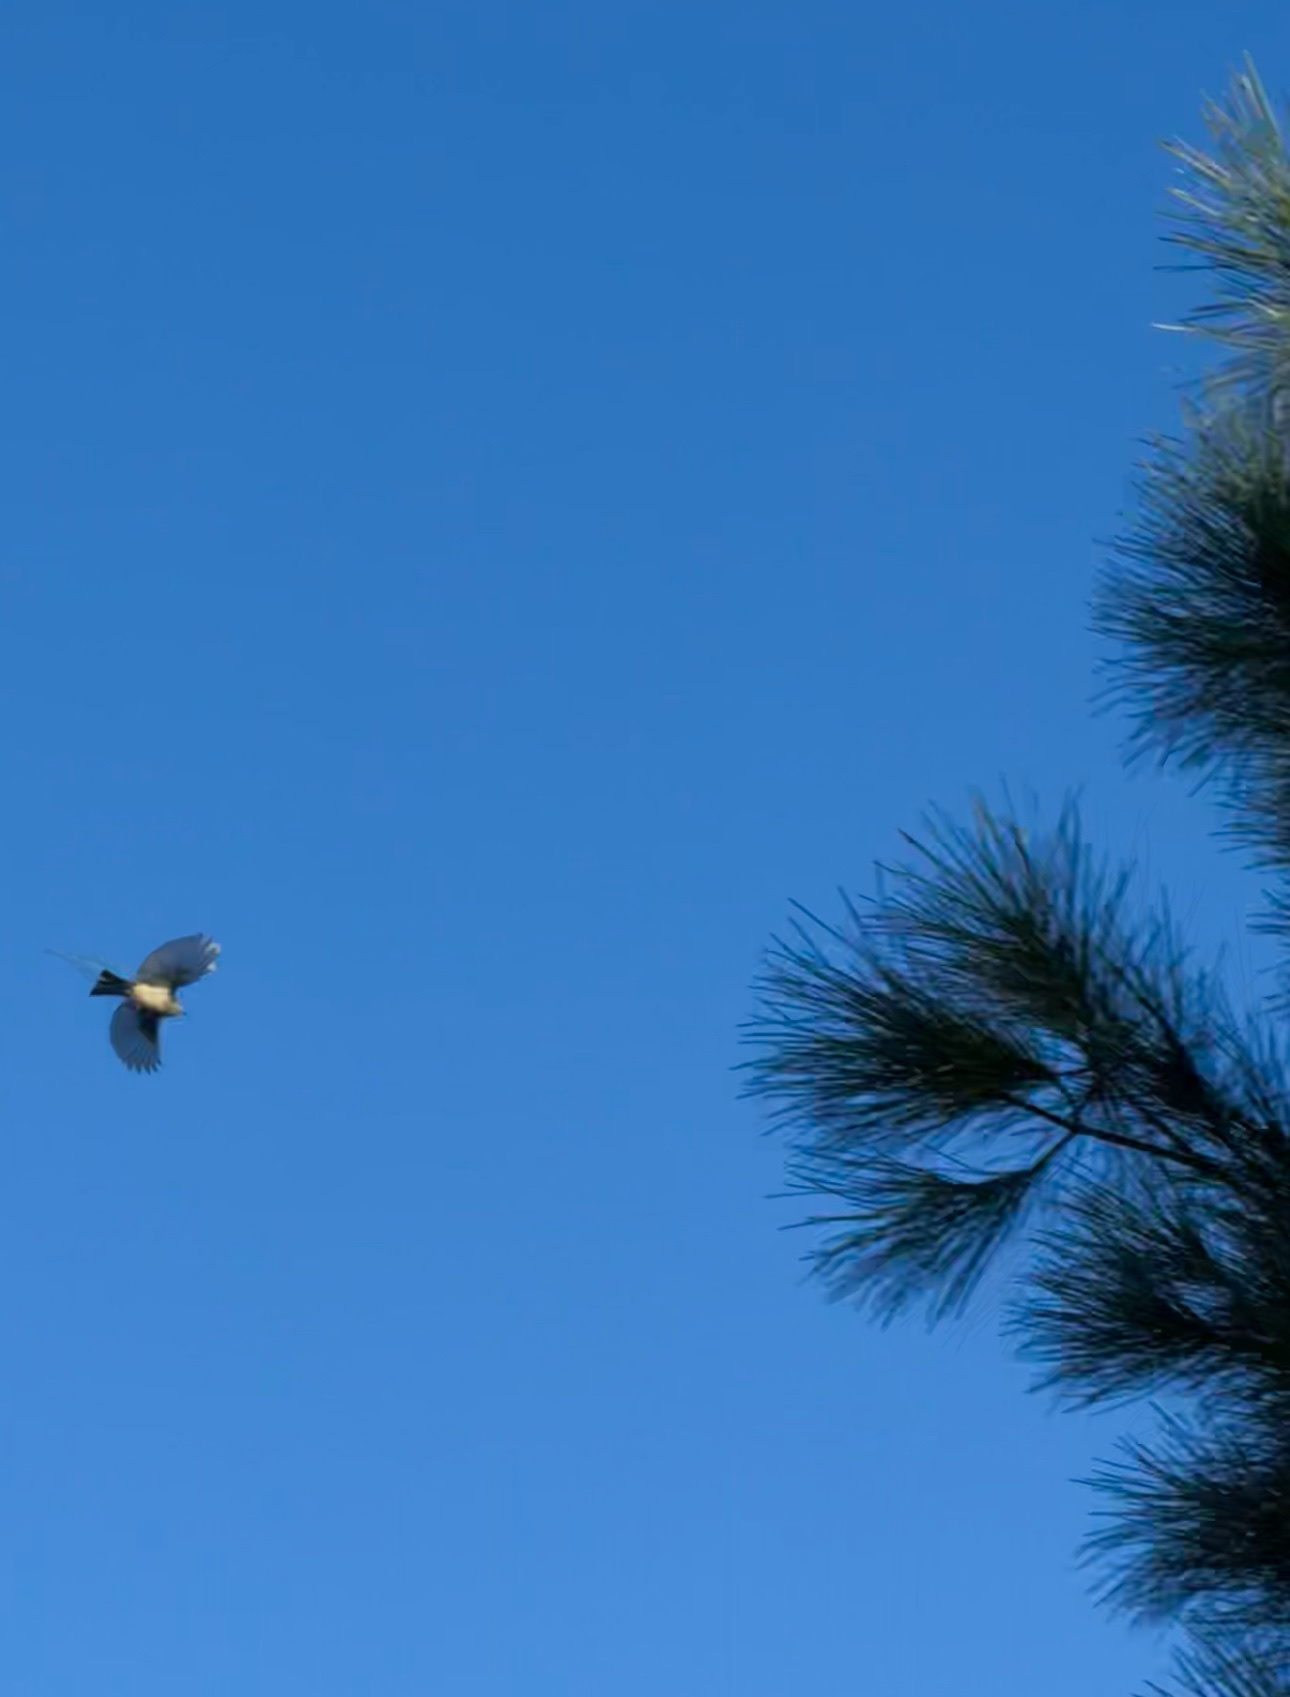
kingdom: Animalia
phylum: Chordata
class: Aves
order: Passeriformes
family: Regulidae
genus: Regulus
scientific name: Regulus calendula
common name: Ruby-crowned kinglet
